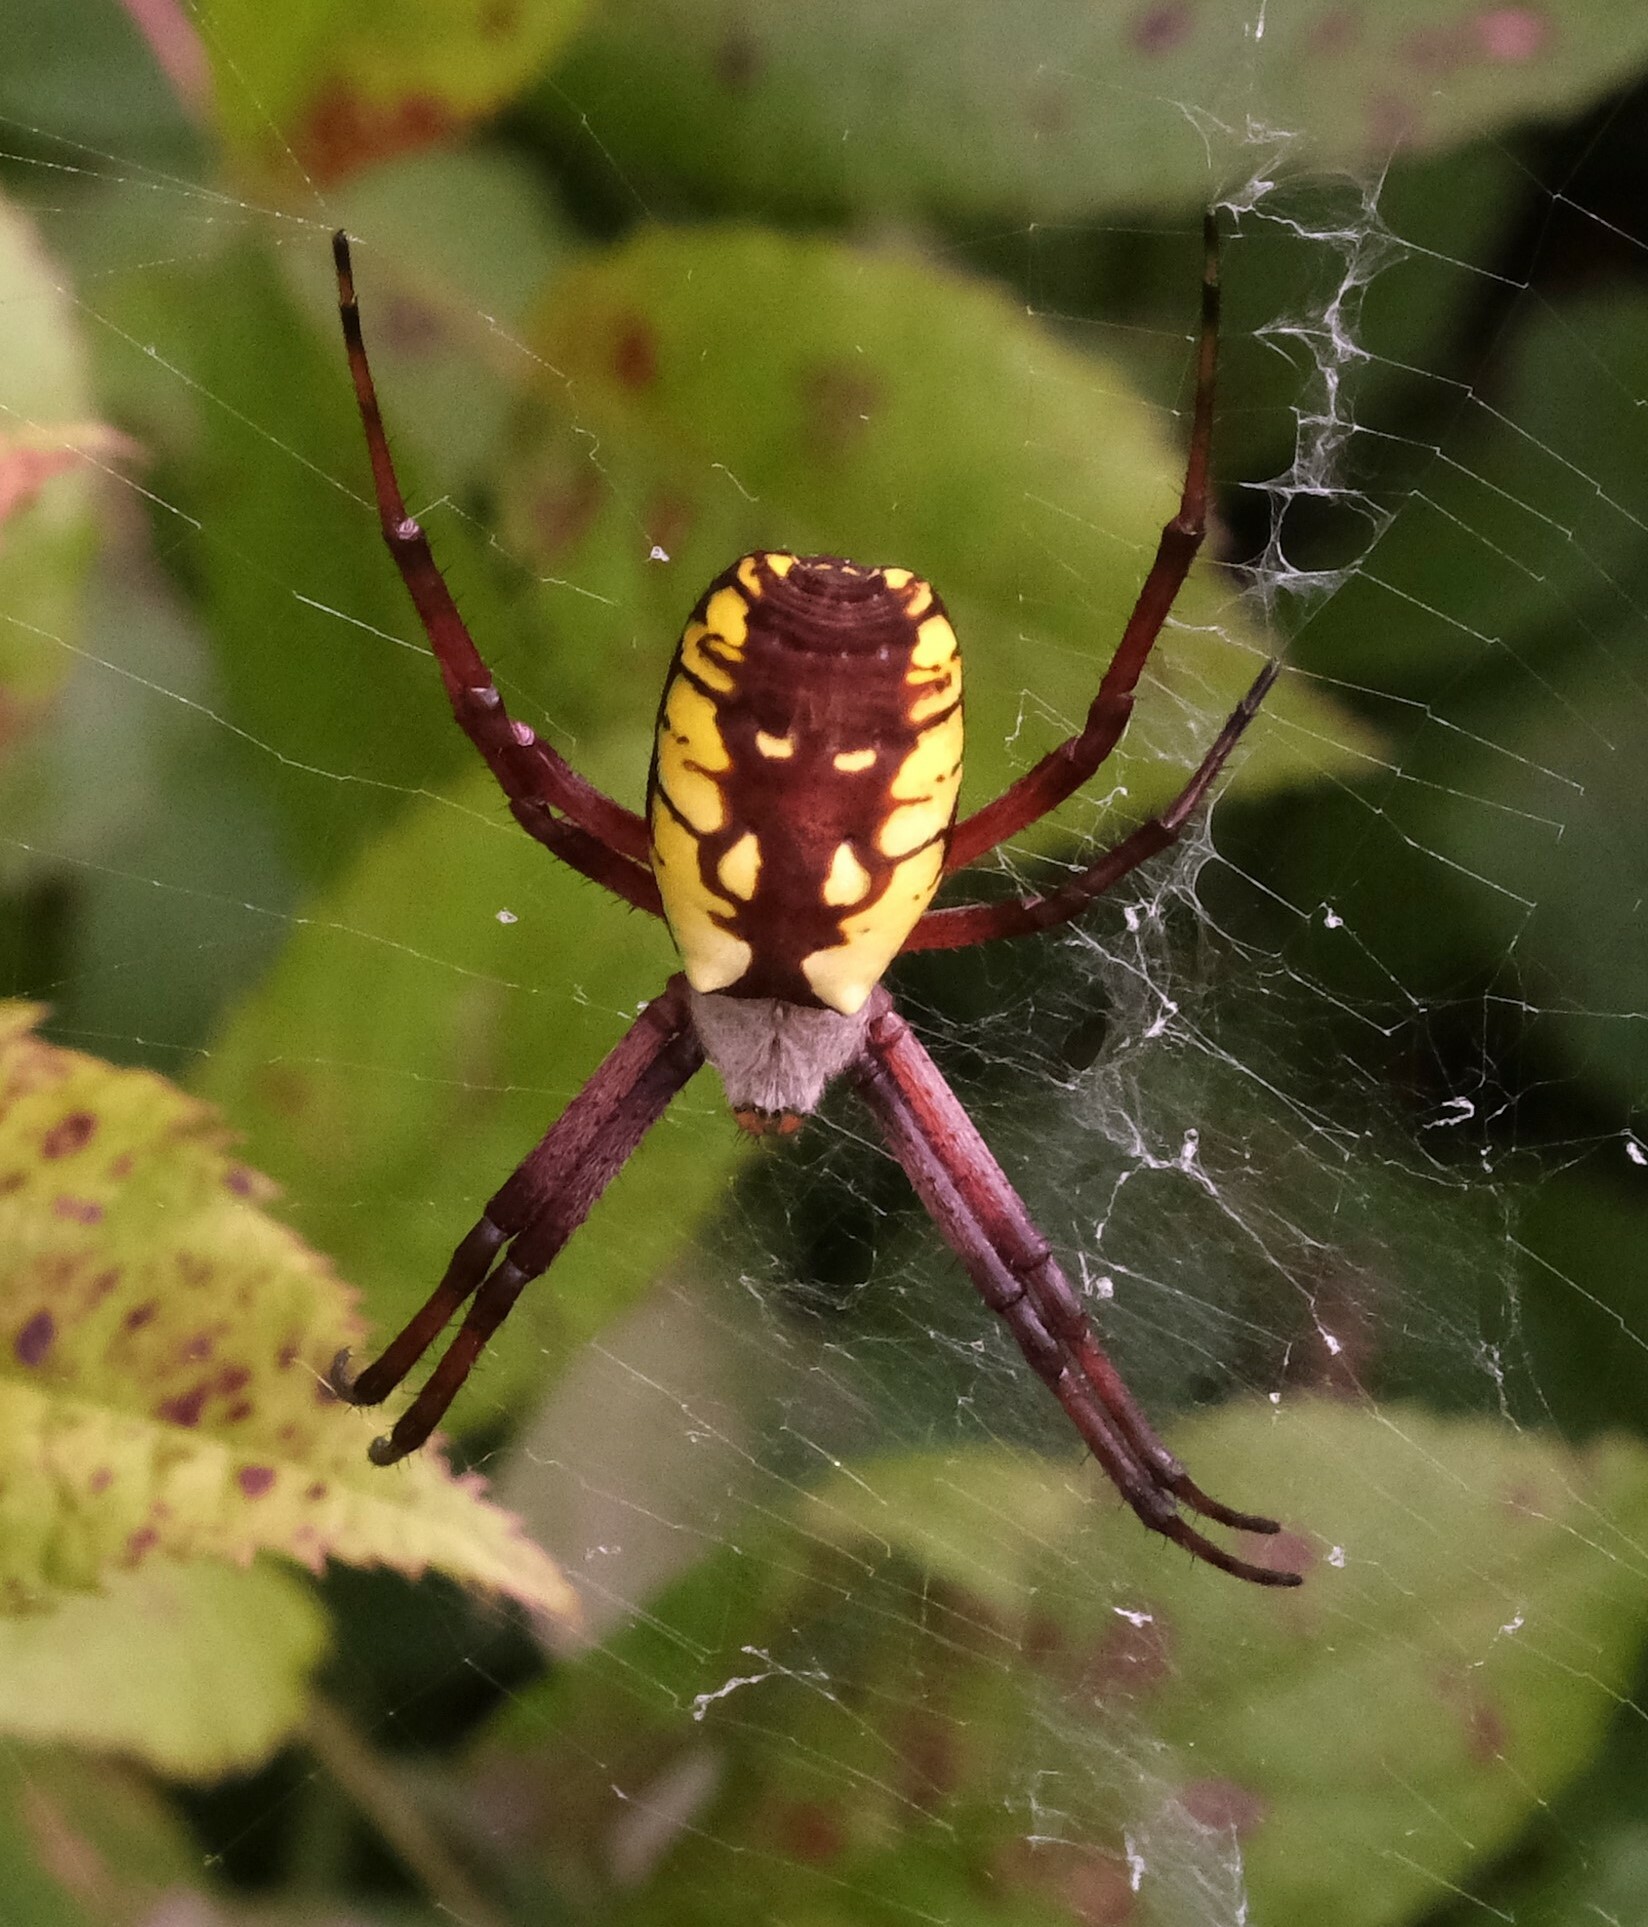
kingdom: Animalia
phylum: Arthropoda
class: Arachnida
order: Araneae
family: Araneidae
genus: Argiope
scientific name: Argiope aurantia
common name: Orb weavers
